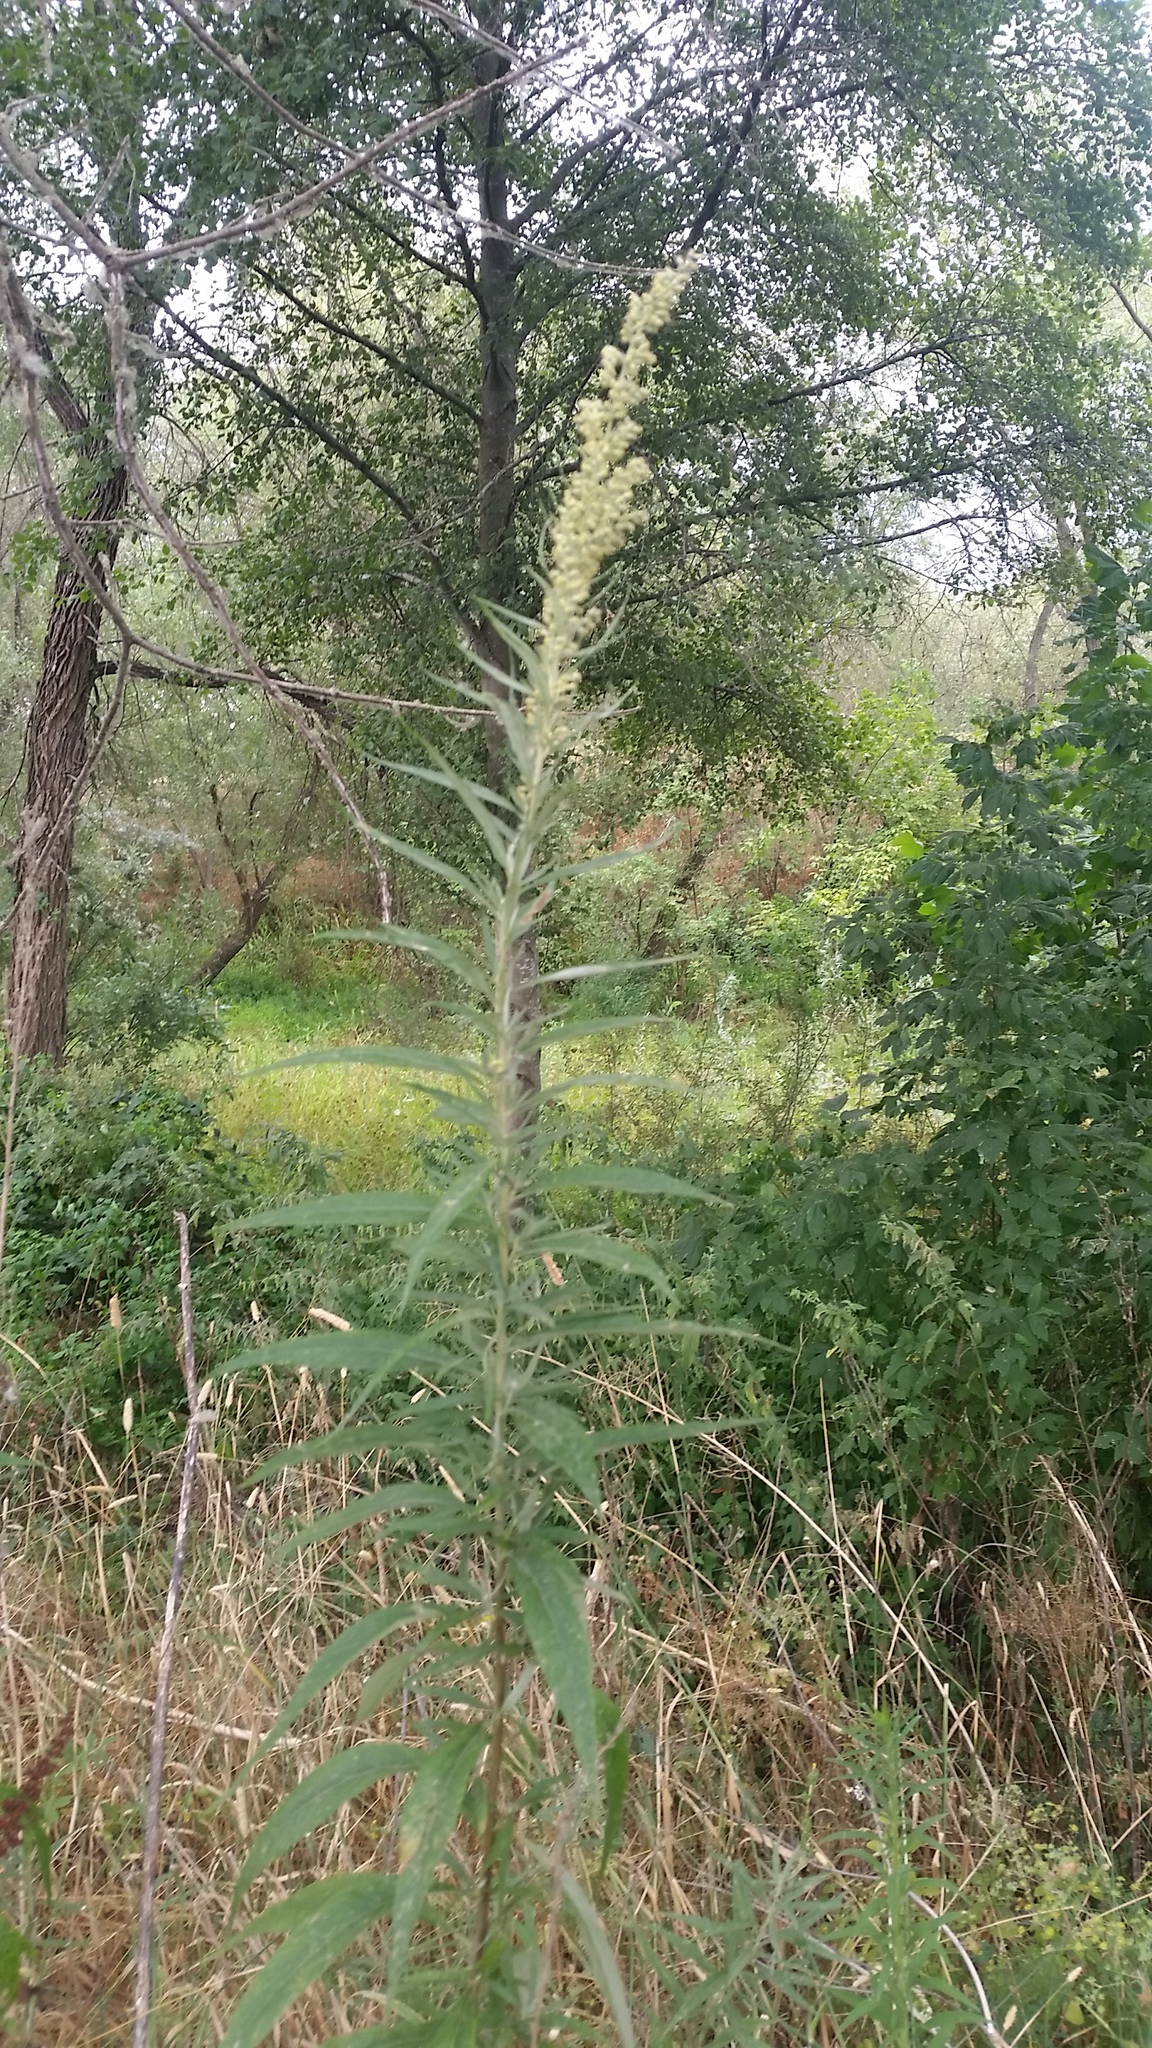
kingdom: Plantae
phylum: Tracheophyta
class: Magnoliopsida
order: Asterales
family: Asteraceae
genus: Artemisia
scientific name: Artemisia douglasiana
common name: Northwest mugwort
